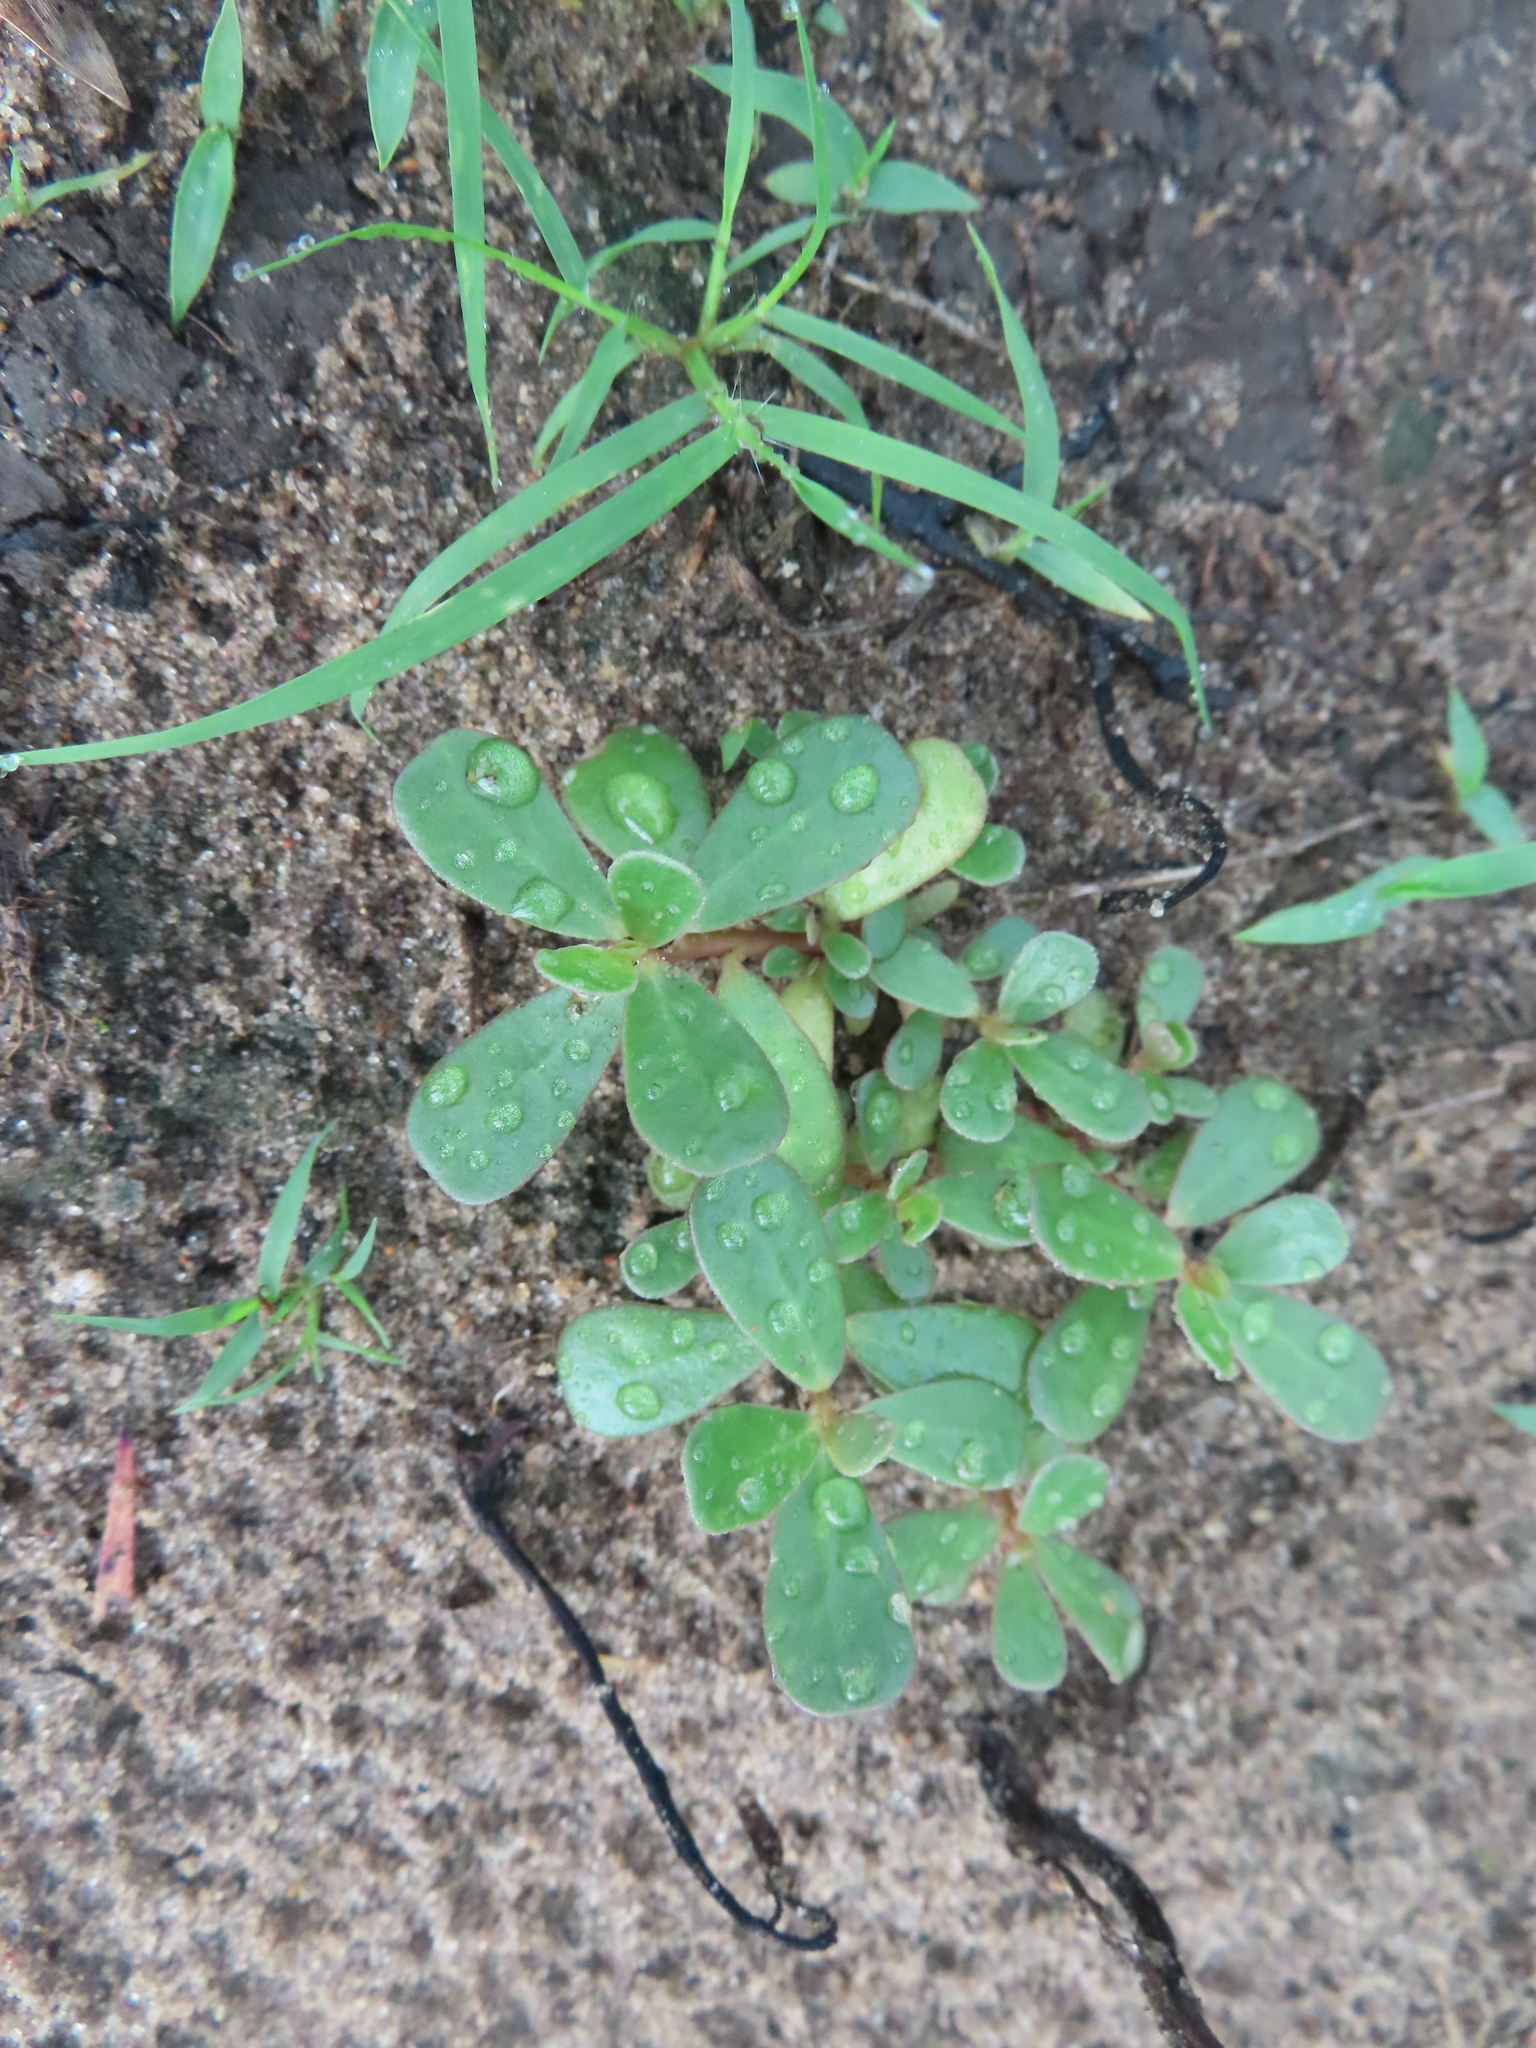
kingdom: Plantae
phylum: Tracheophyta
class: Magnoliopsida
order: Caryophyllales
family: Portulacaceae
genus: Portulaca
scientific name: Portulaca oleracea
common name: Common purslane
